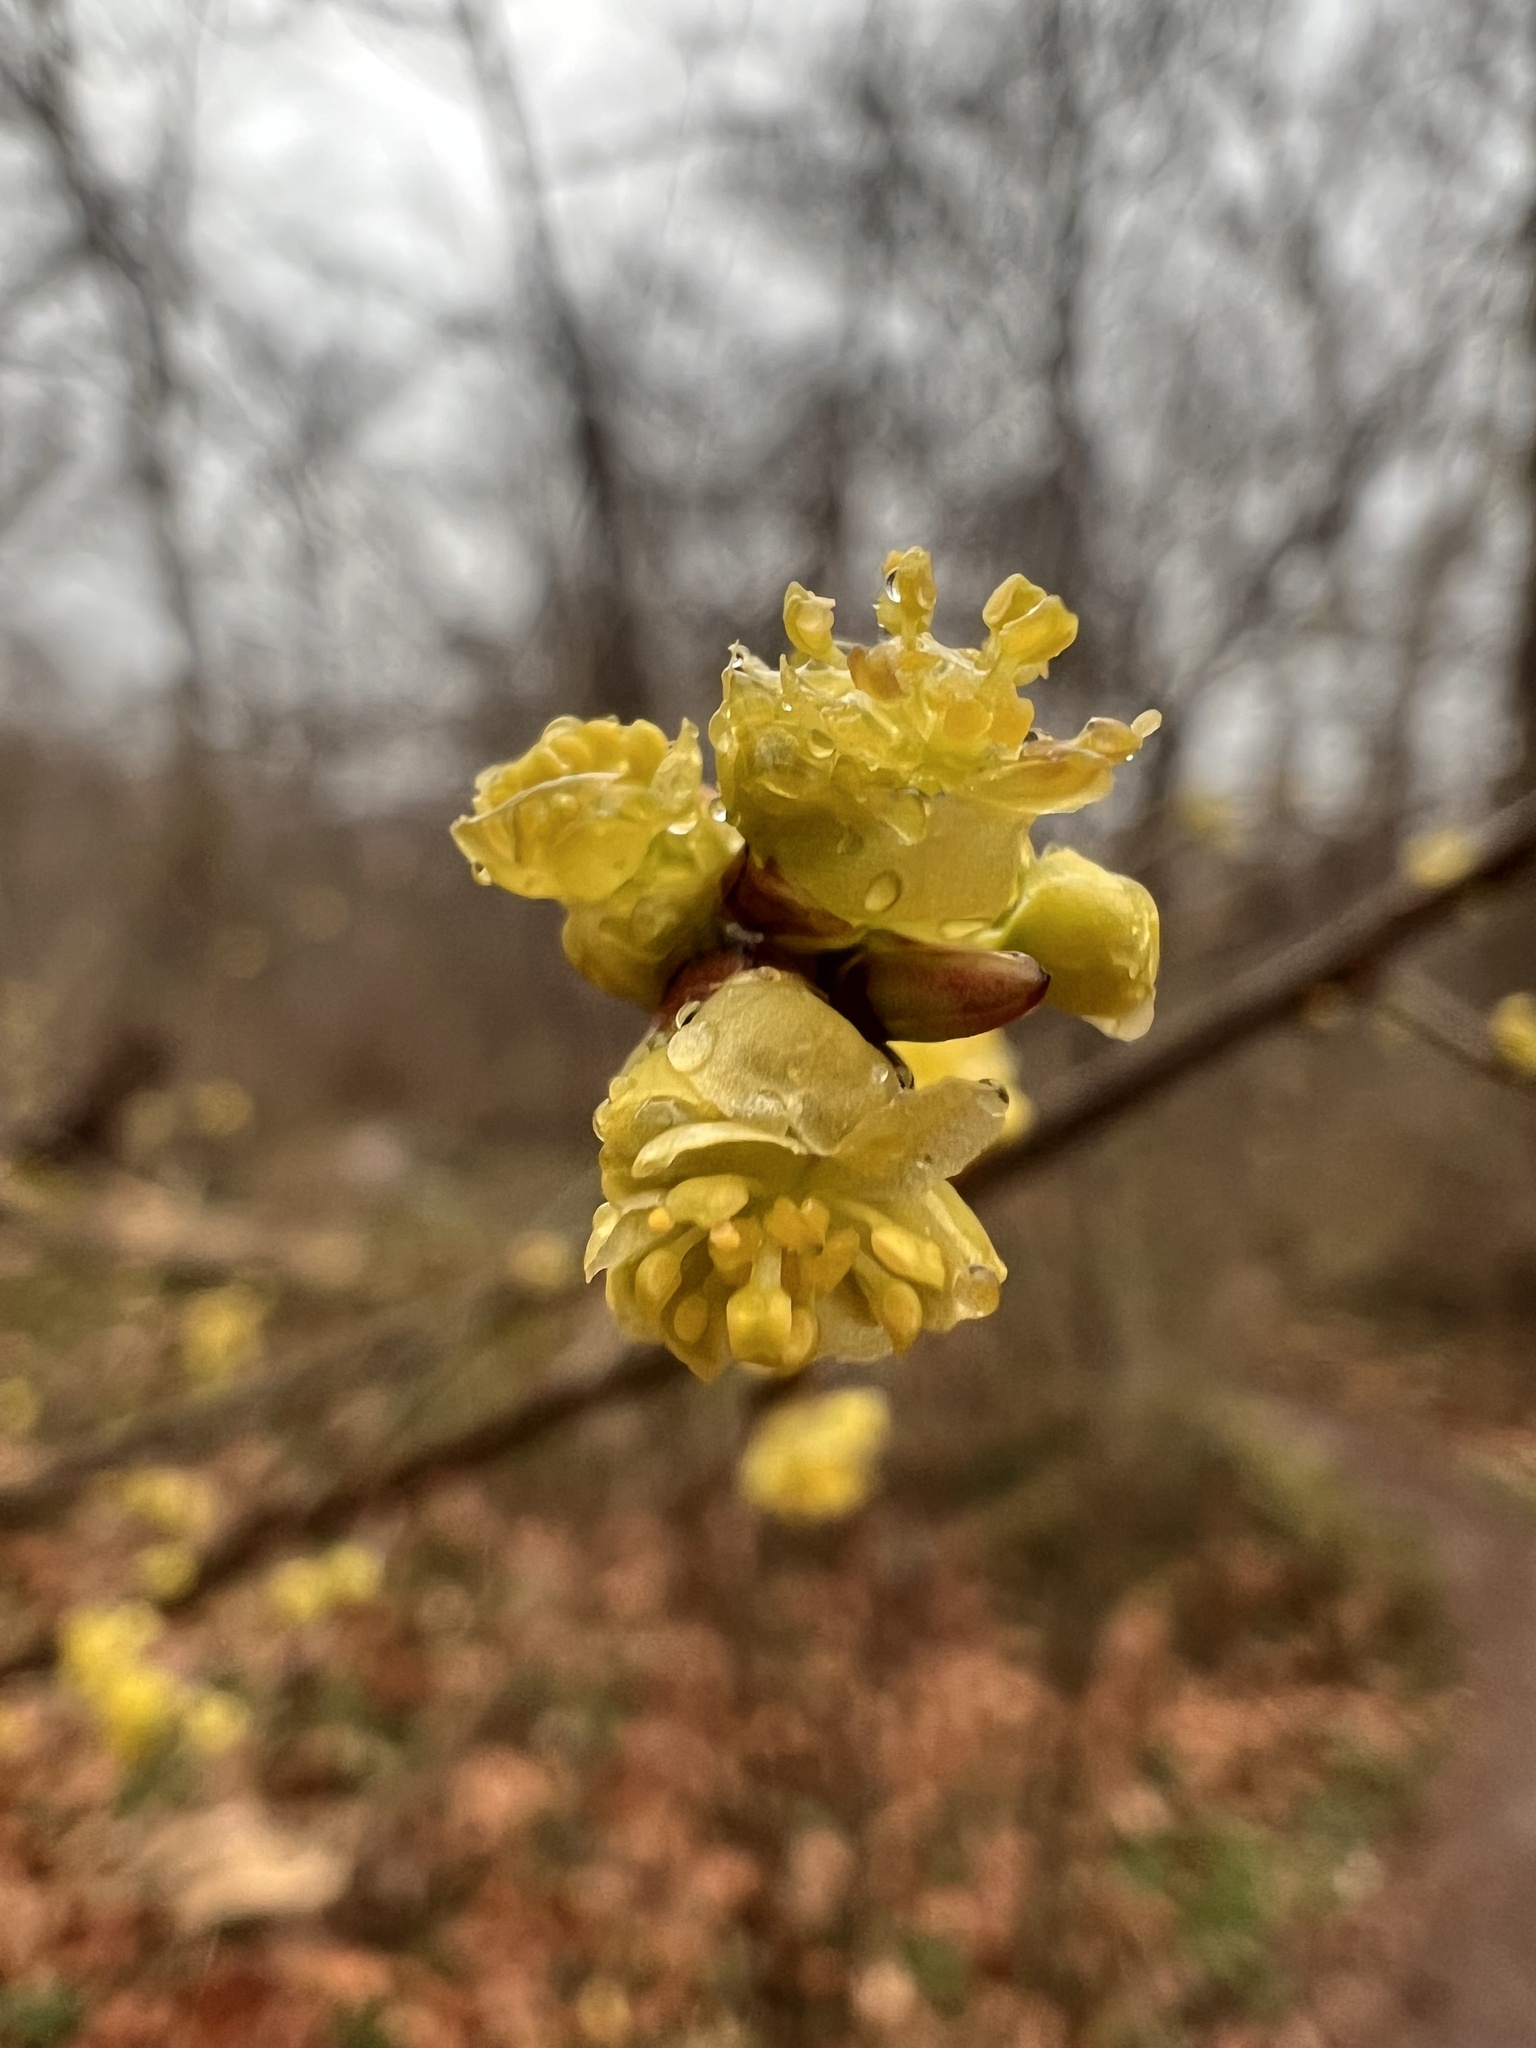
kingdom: Plantae
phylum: Tracheophyta
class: Magnoliopsida
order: Laurales
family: Lauraceae
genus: Lindera
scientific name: Lindera benzoin
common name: Spicebush
